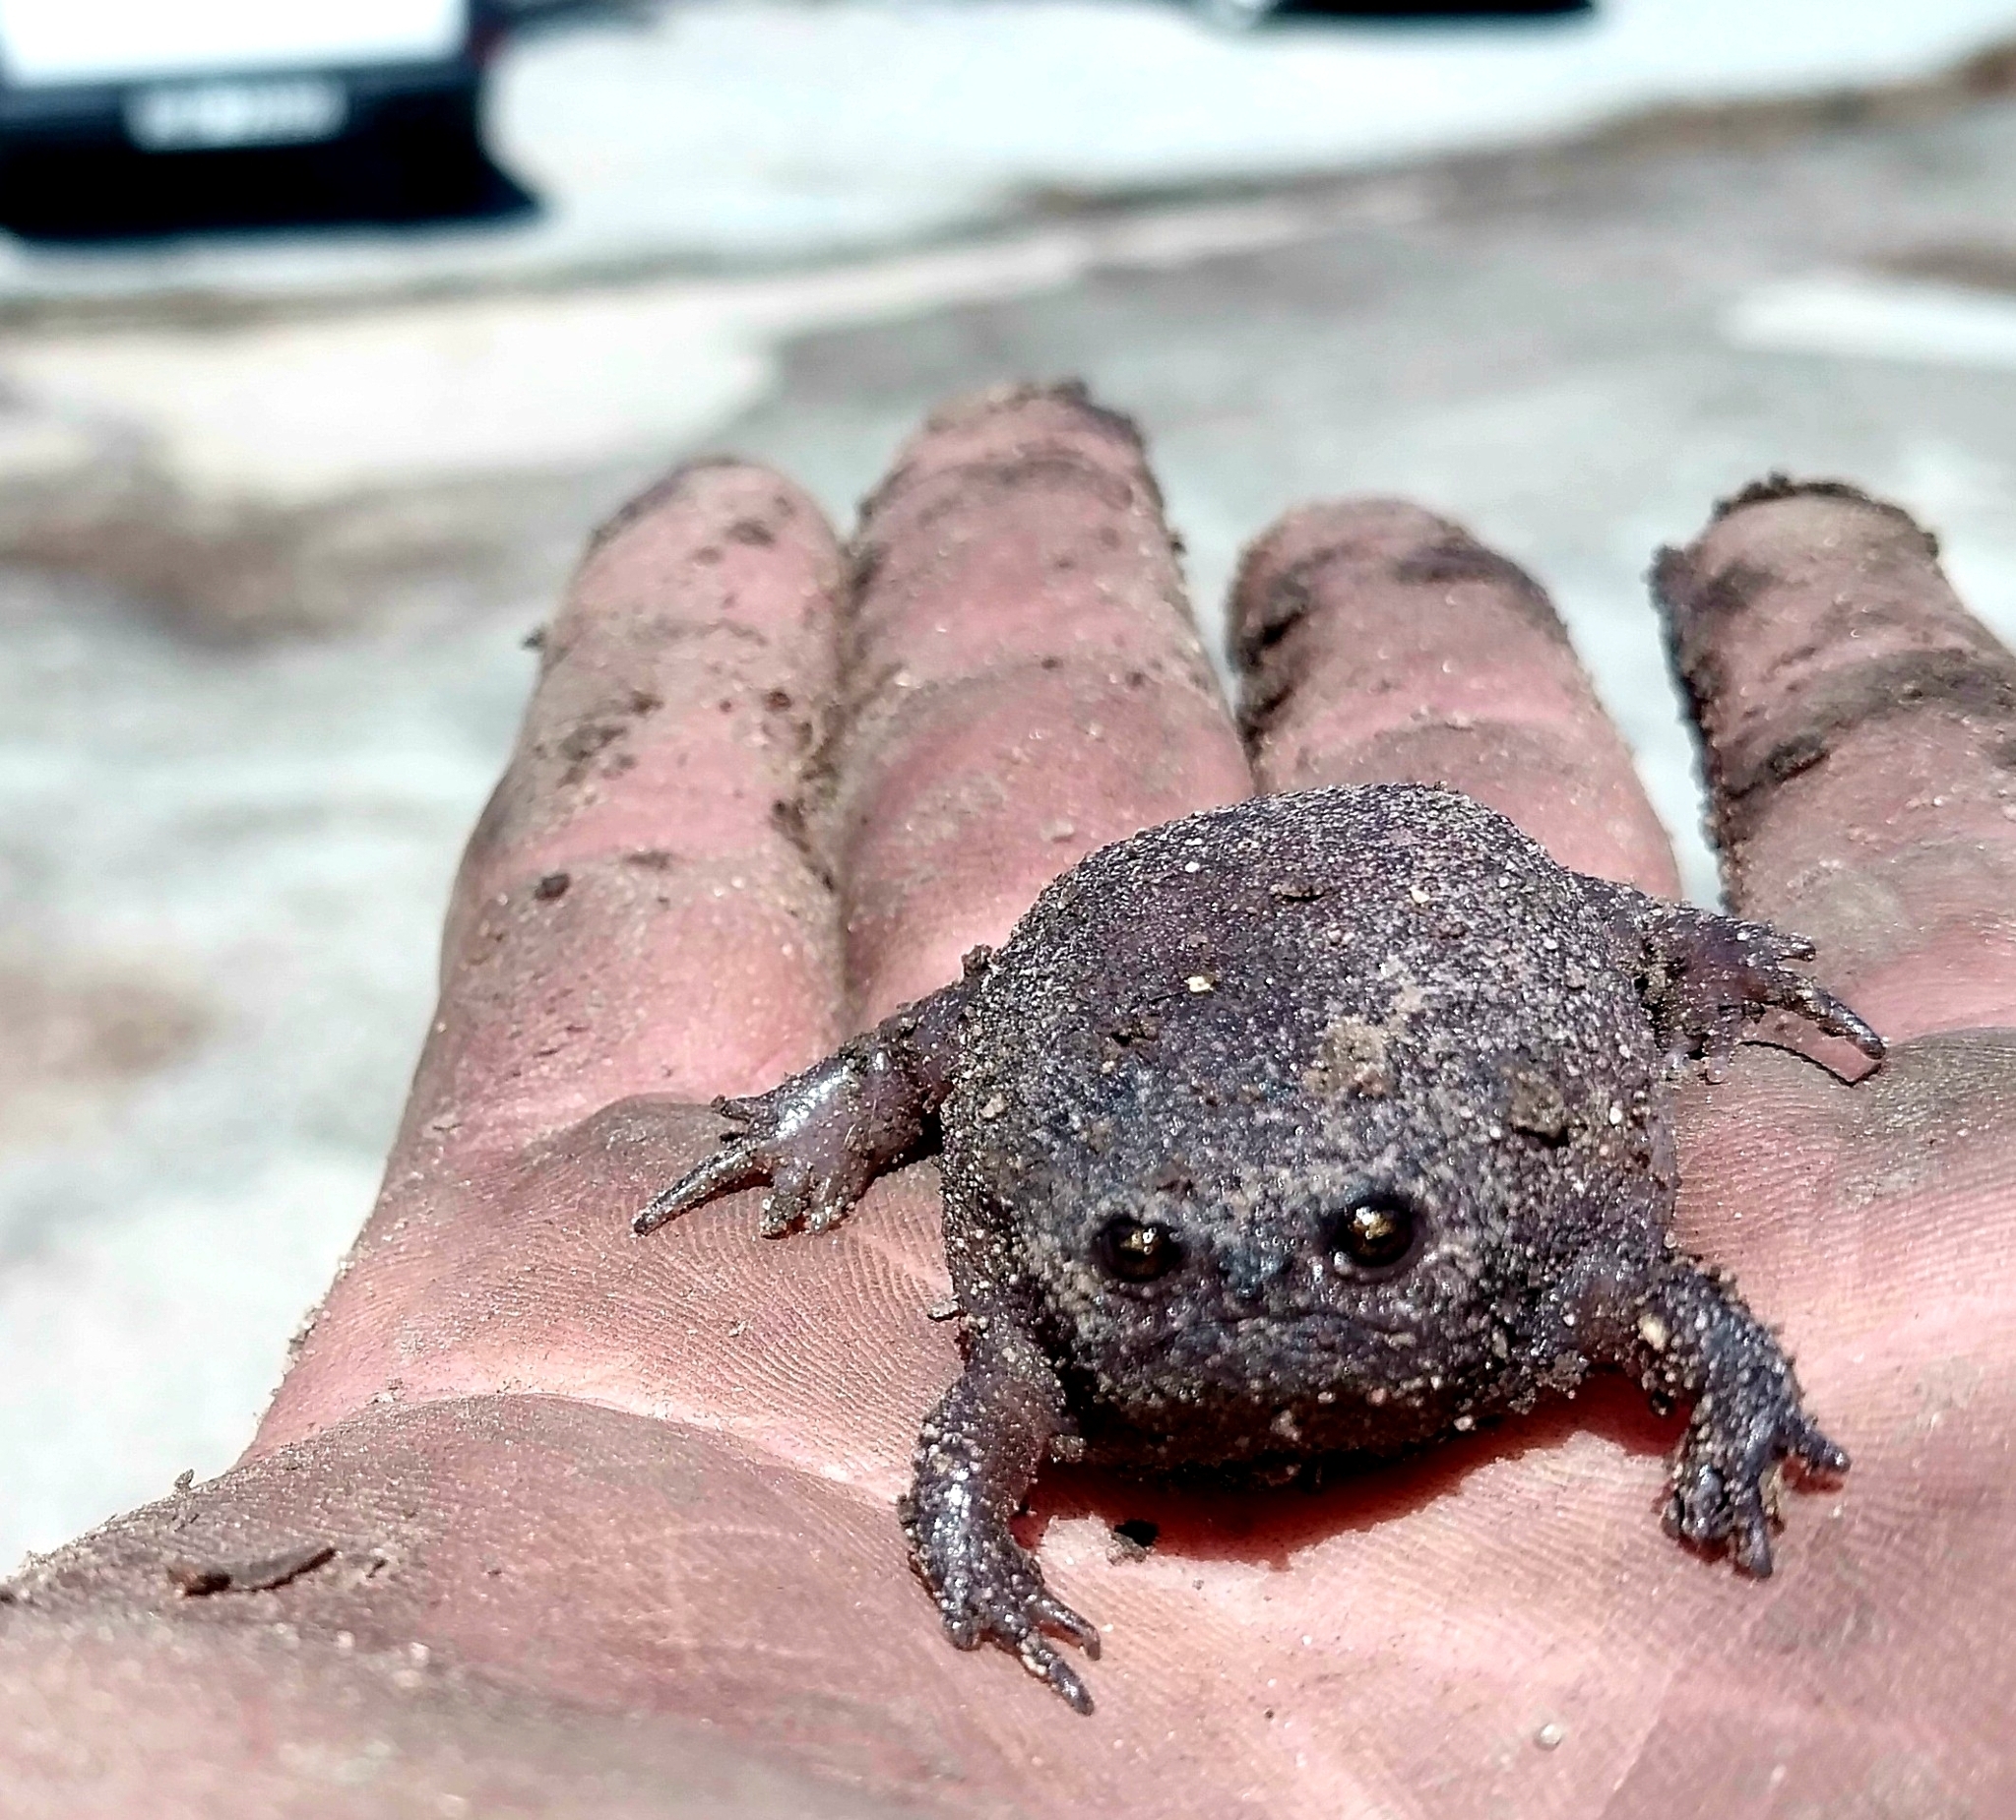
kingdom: Animalia
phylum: Chordata
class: Amphibia
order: Anura
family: Brevicipitidae
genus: Breviceps
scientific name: Breviceps fuscus
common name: Black rain frog
